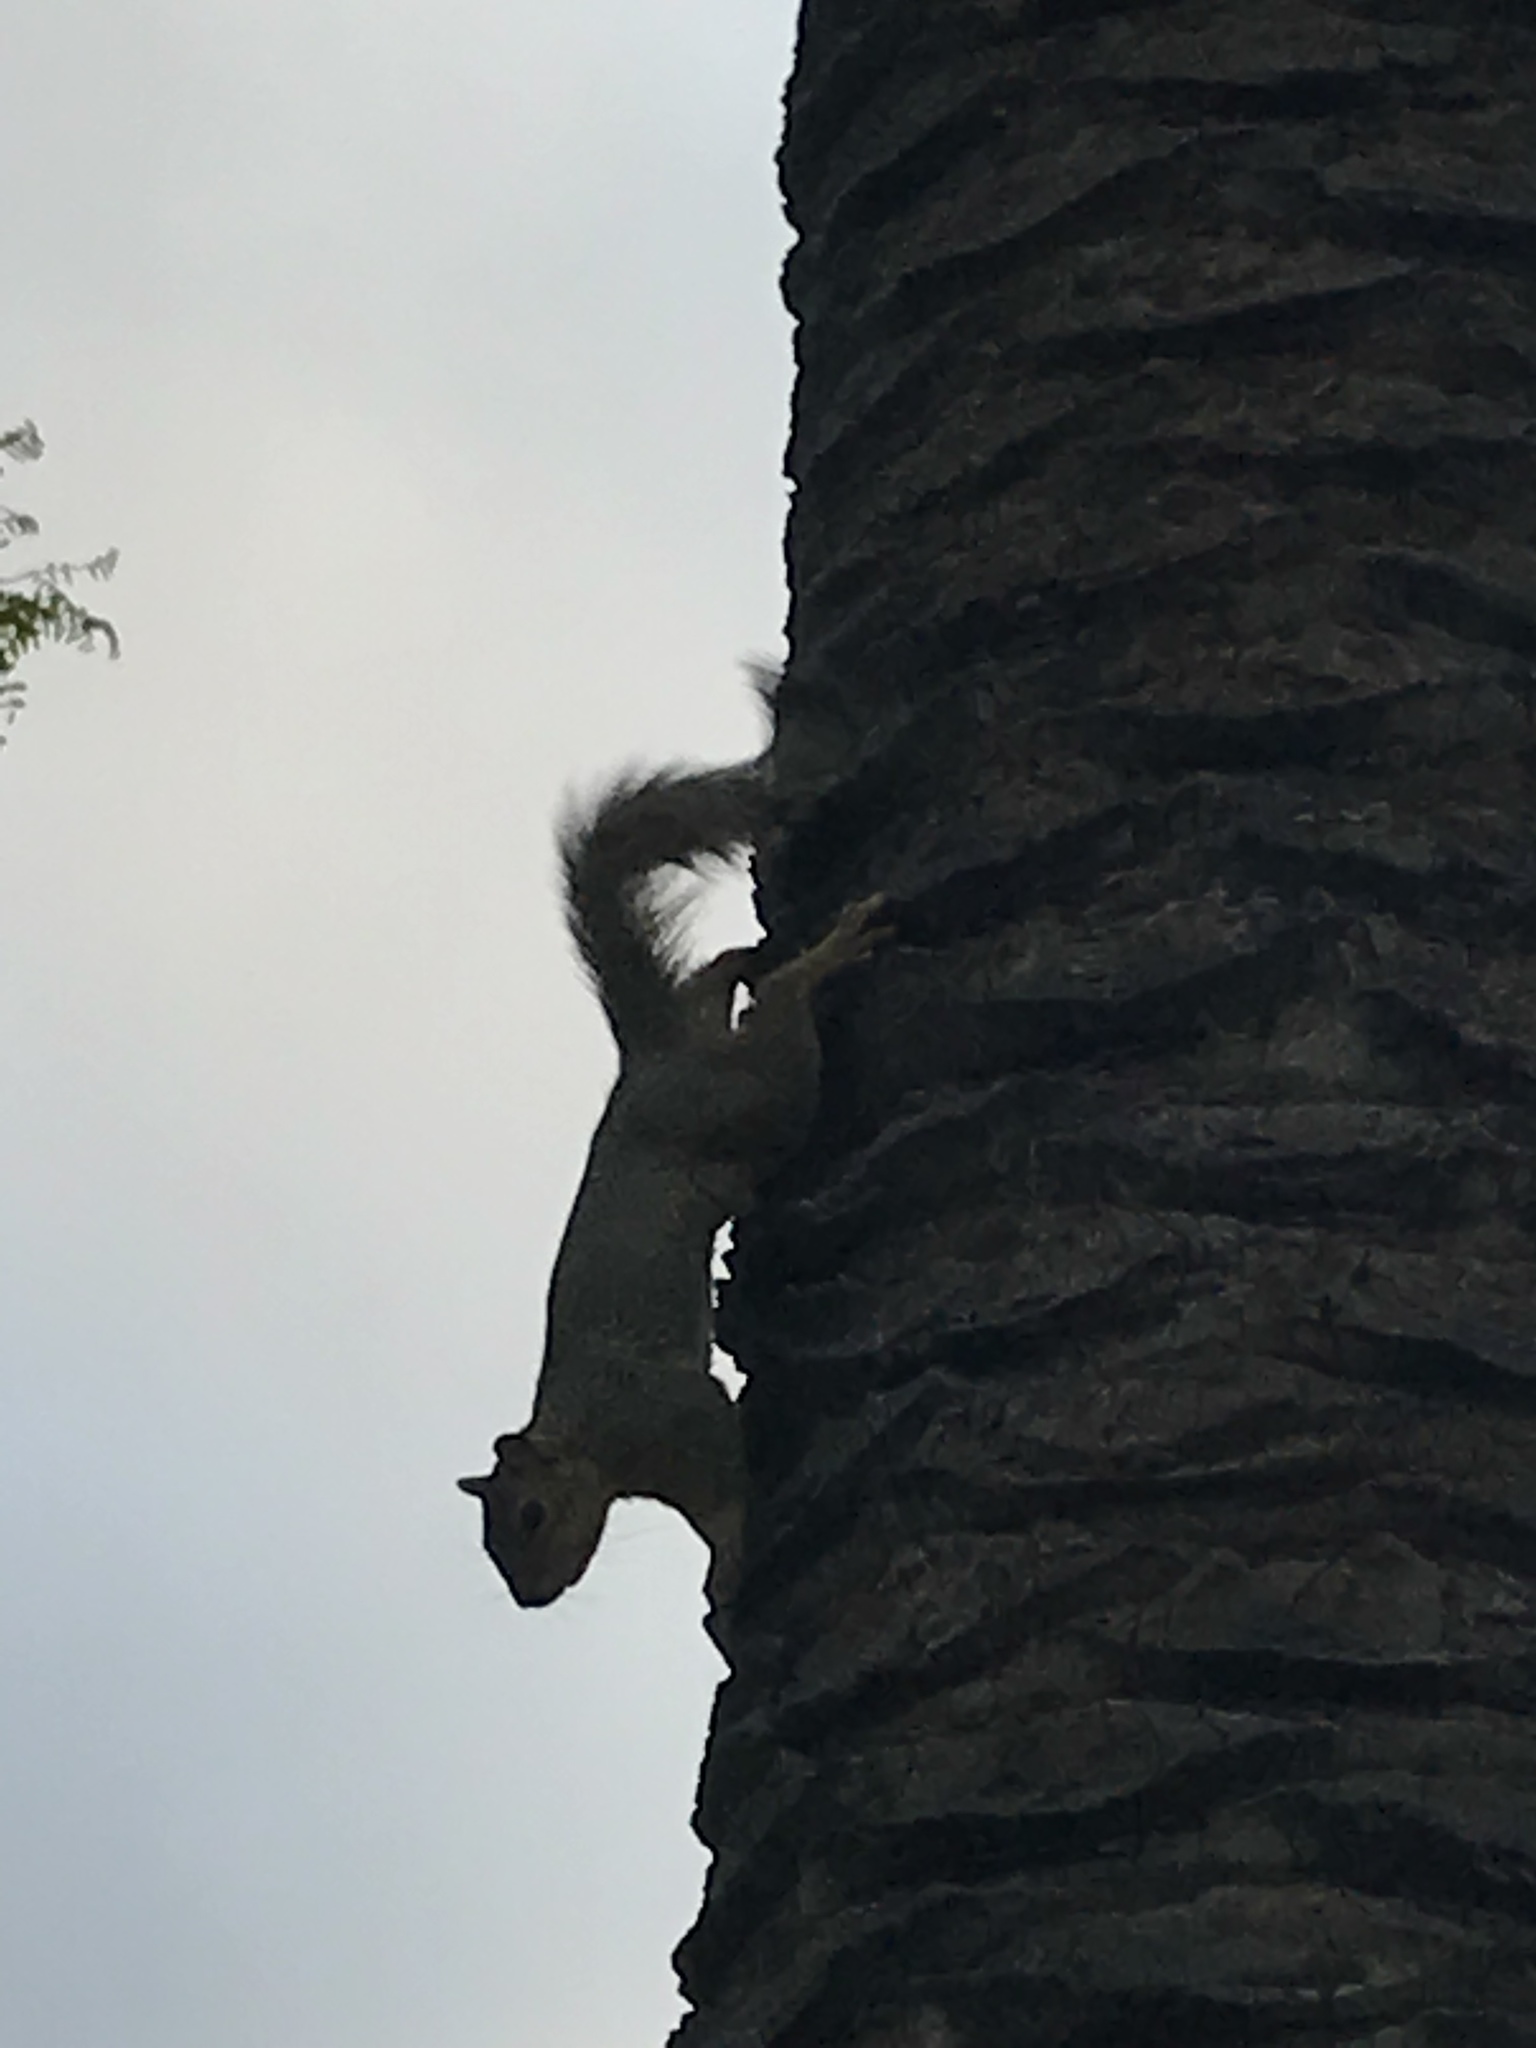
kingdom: Animalia
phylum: Chordata
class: Mammalia
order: Rodentia
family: Sciuridae
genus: Sciurus
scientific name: Sciurus niger
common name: Fox squirrel
